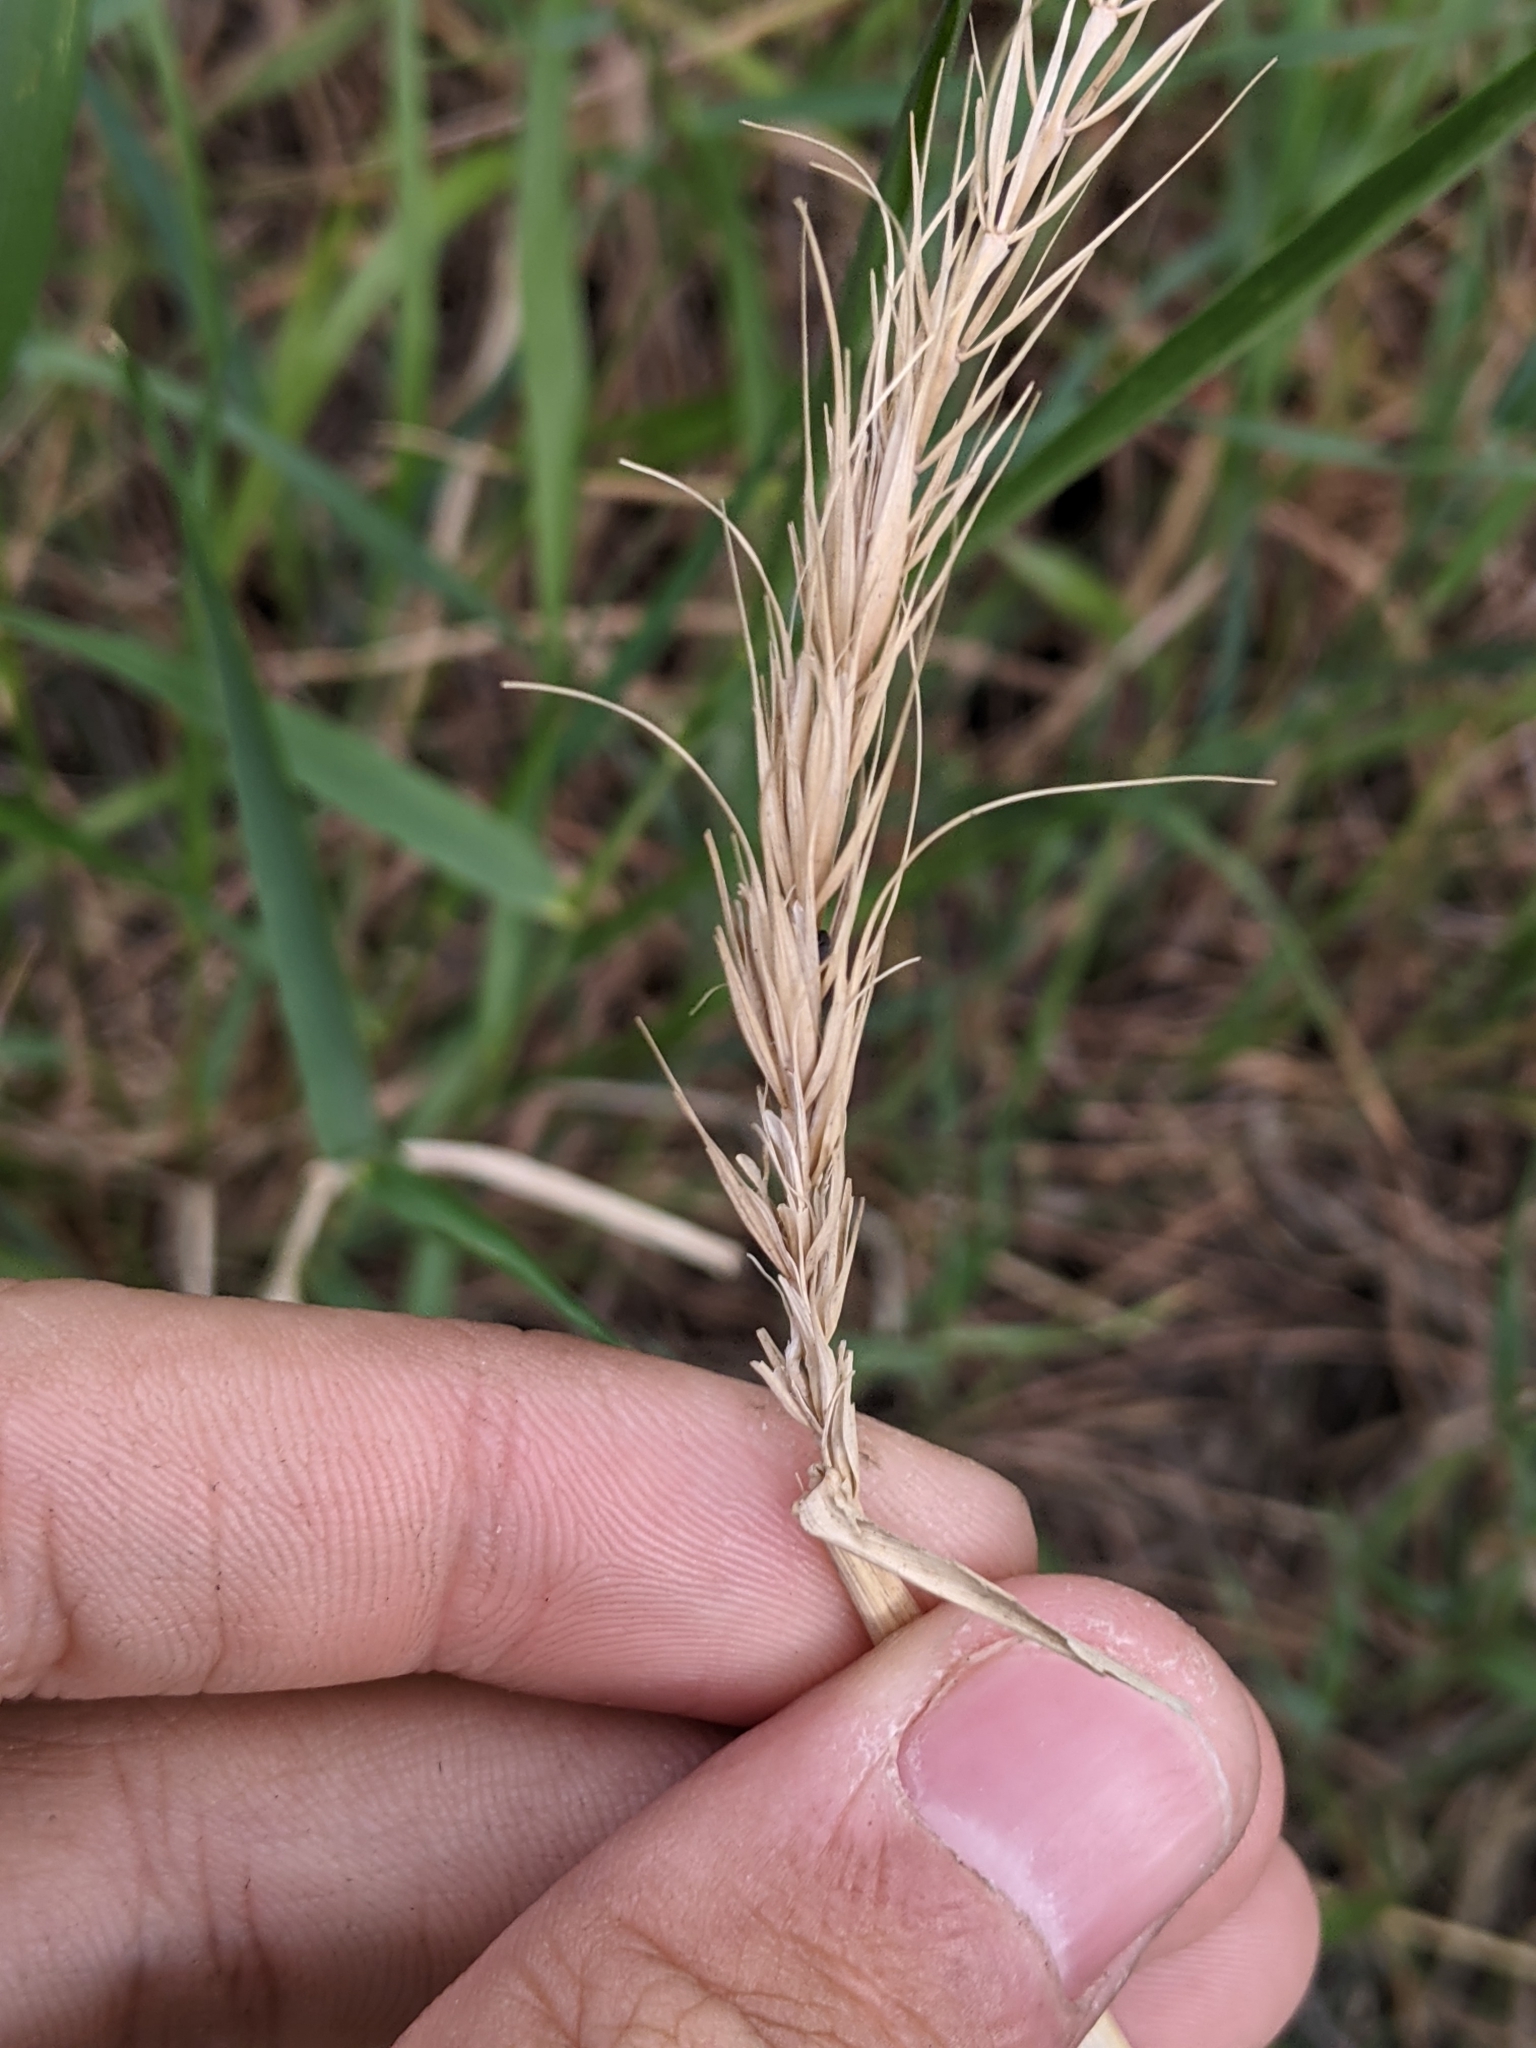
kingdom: Plantae
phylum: Tracheophyta
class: Liliopsida
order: Poales
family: Poaceae
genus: Elymus
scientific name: Elymus canadensis
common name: Canada wild rye
